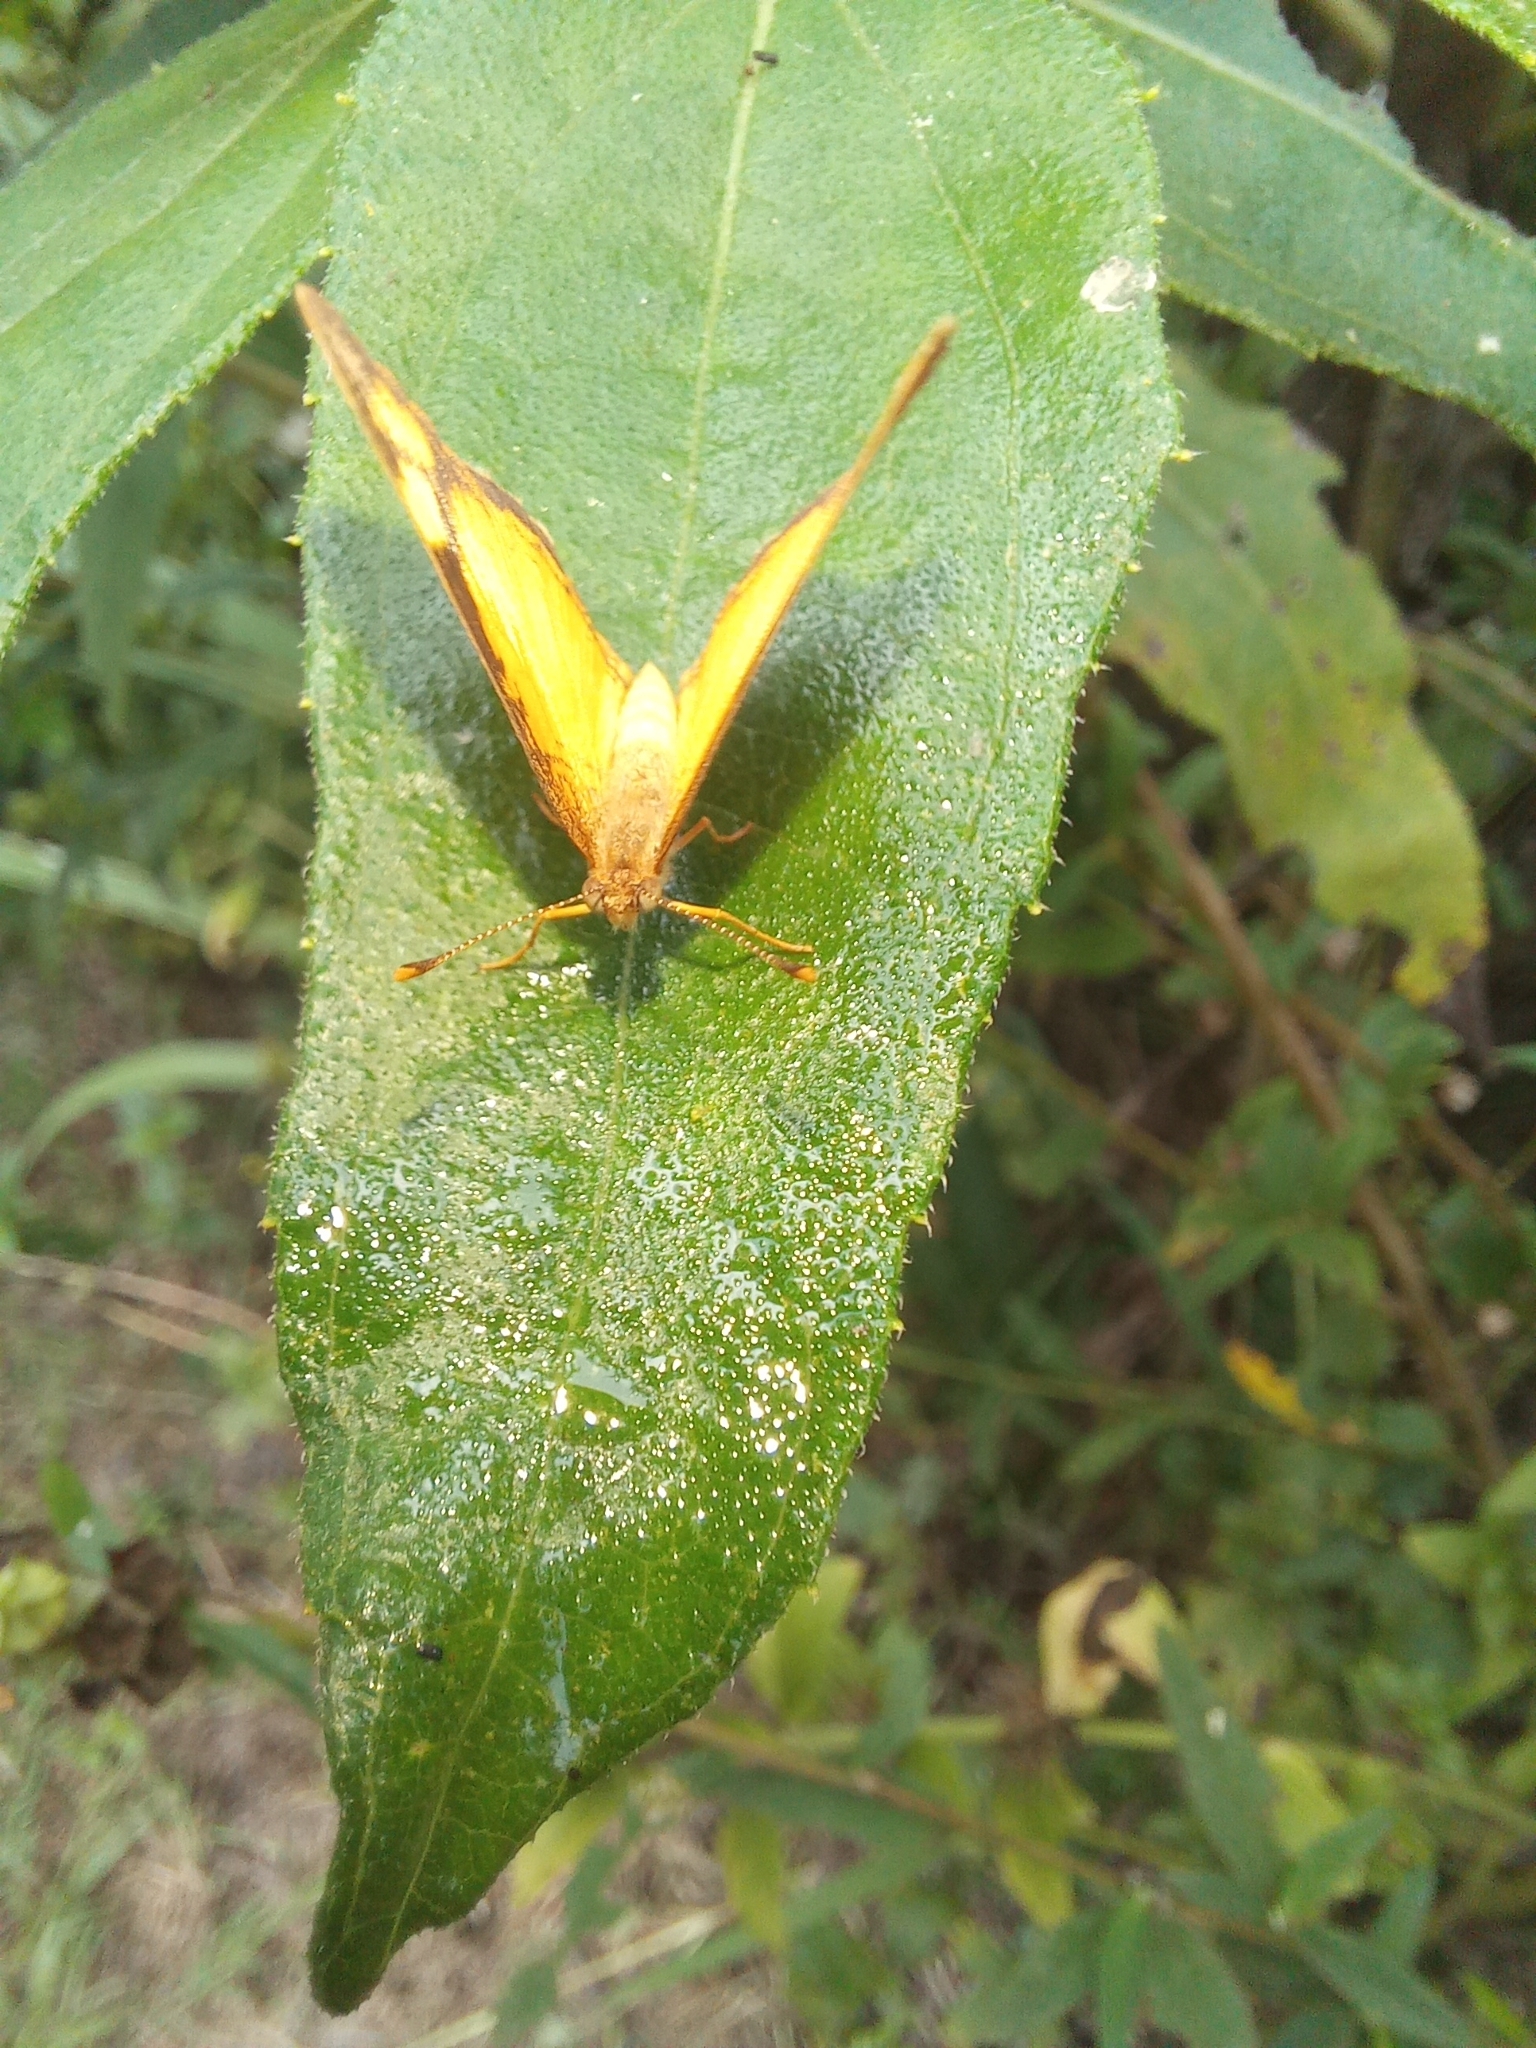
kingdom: Animalia
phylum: Arthropoda
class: Insecta
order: Lepidoptera
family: Nymphalidae
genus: Tegosa
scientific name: Tegosa claudina
